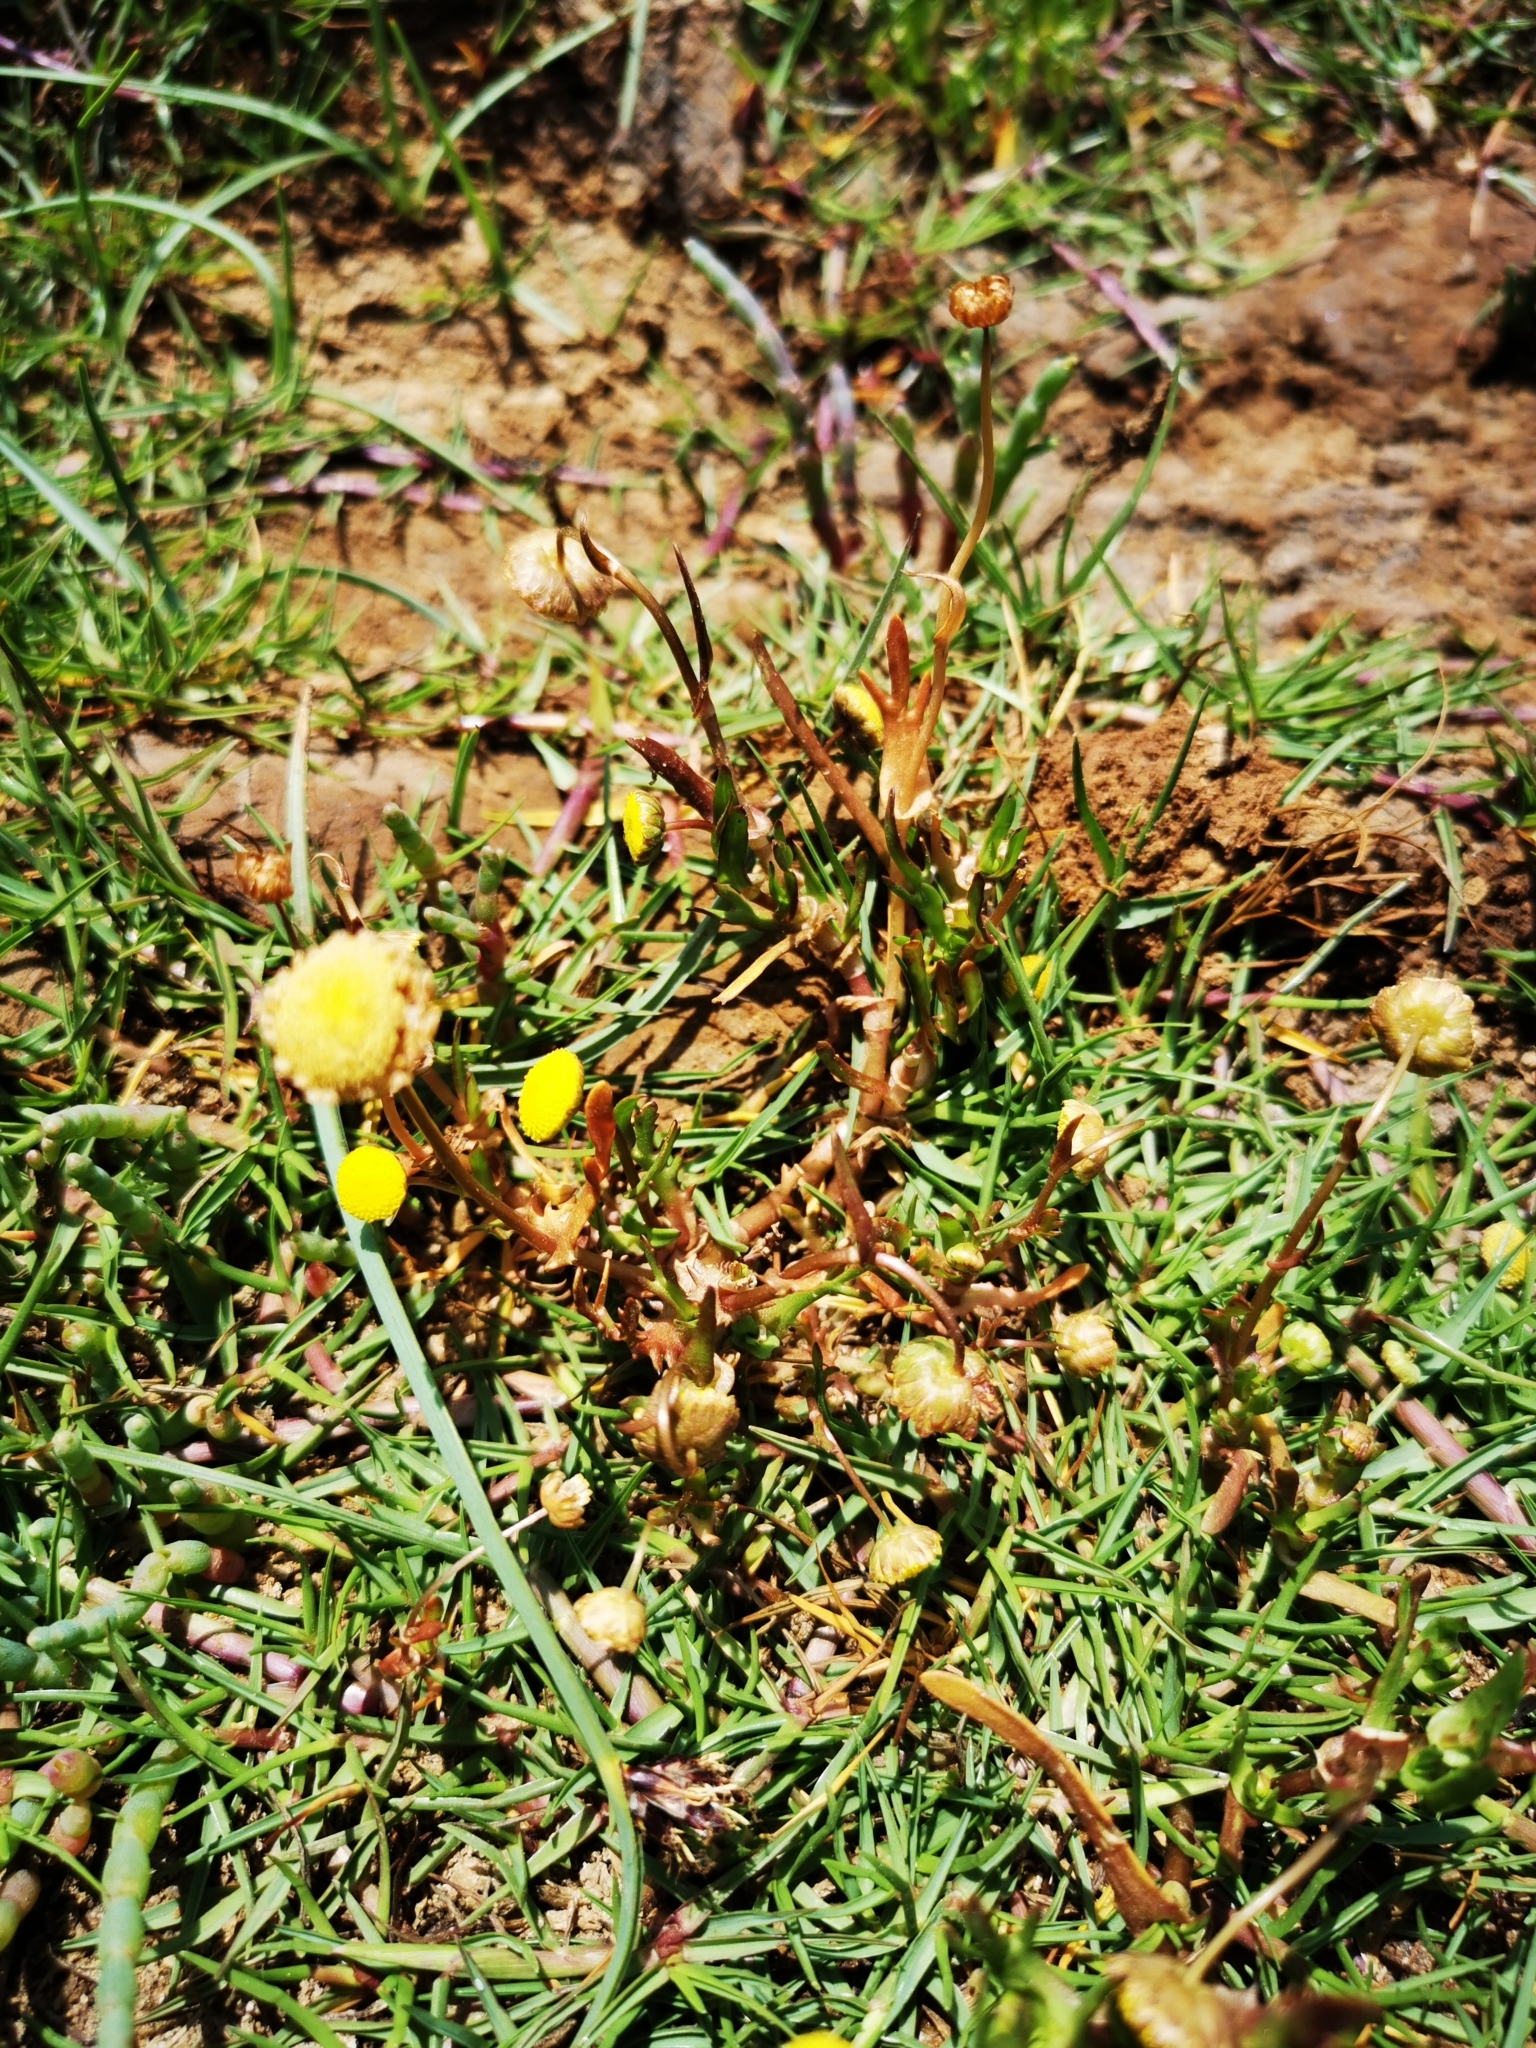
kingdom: Plantae
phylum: Tracheophyta
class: Magnoliopsida
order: Asterales
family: Asteraceae
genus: Cotula
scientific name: Cotula coronopifolia
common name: Buttonweed
